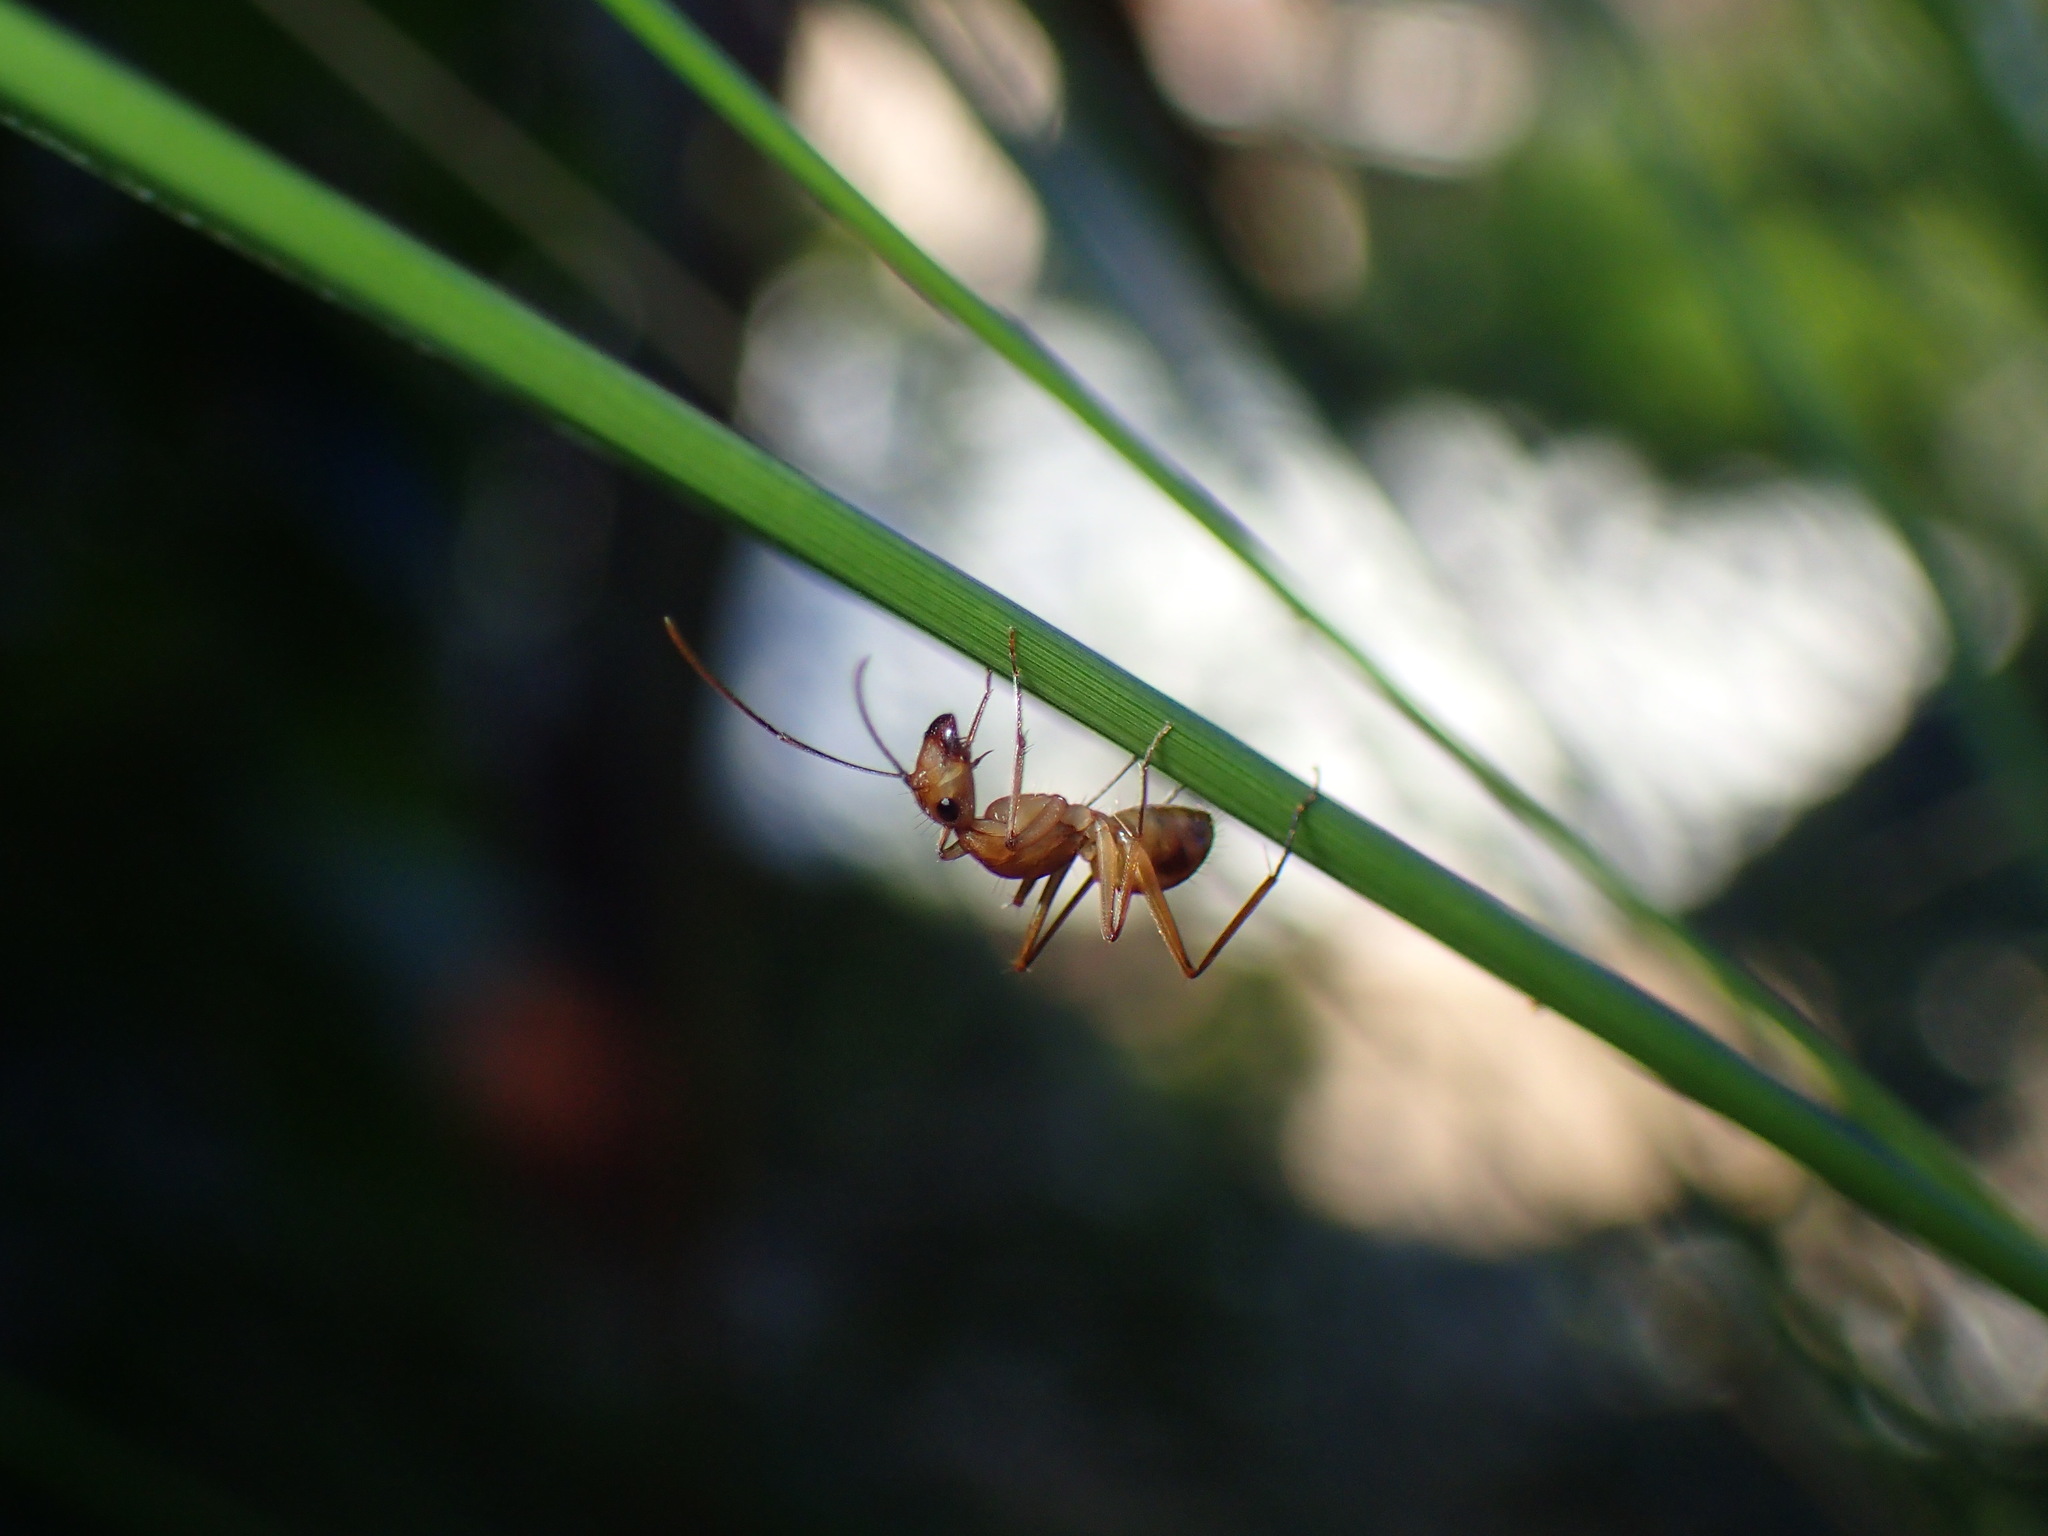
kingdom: Animalia
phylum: Arthropoda
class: Insecta
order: Hymenoptera
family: Formicidae
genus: Camponotus
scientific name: Camponotus maculatus
